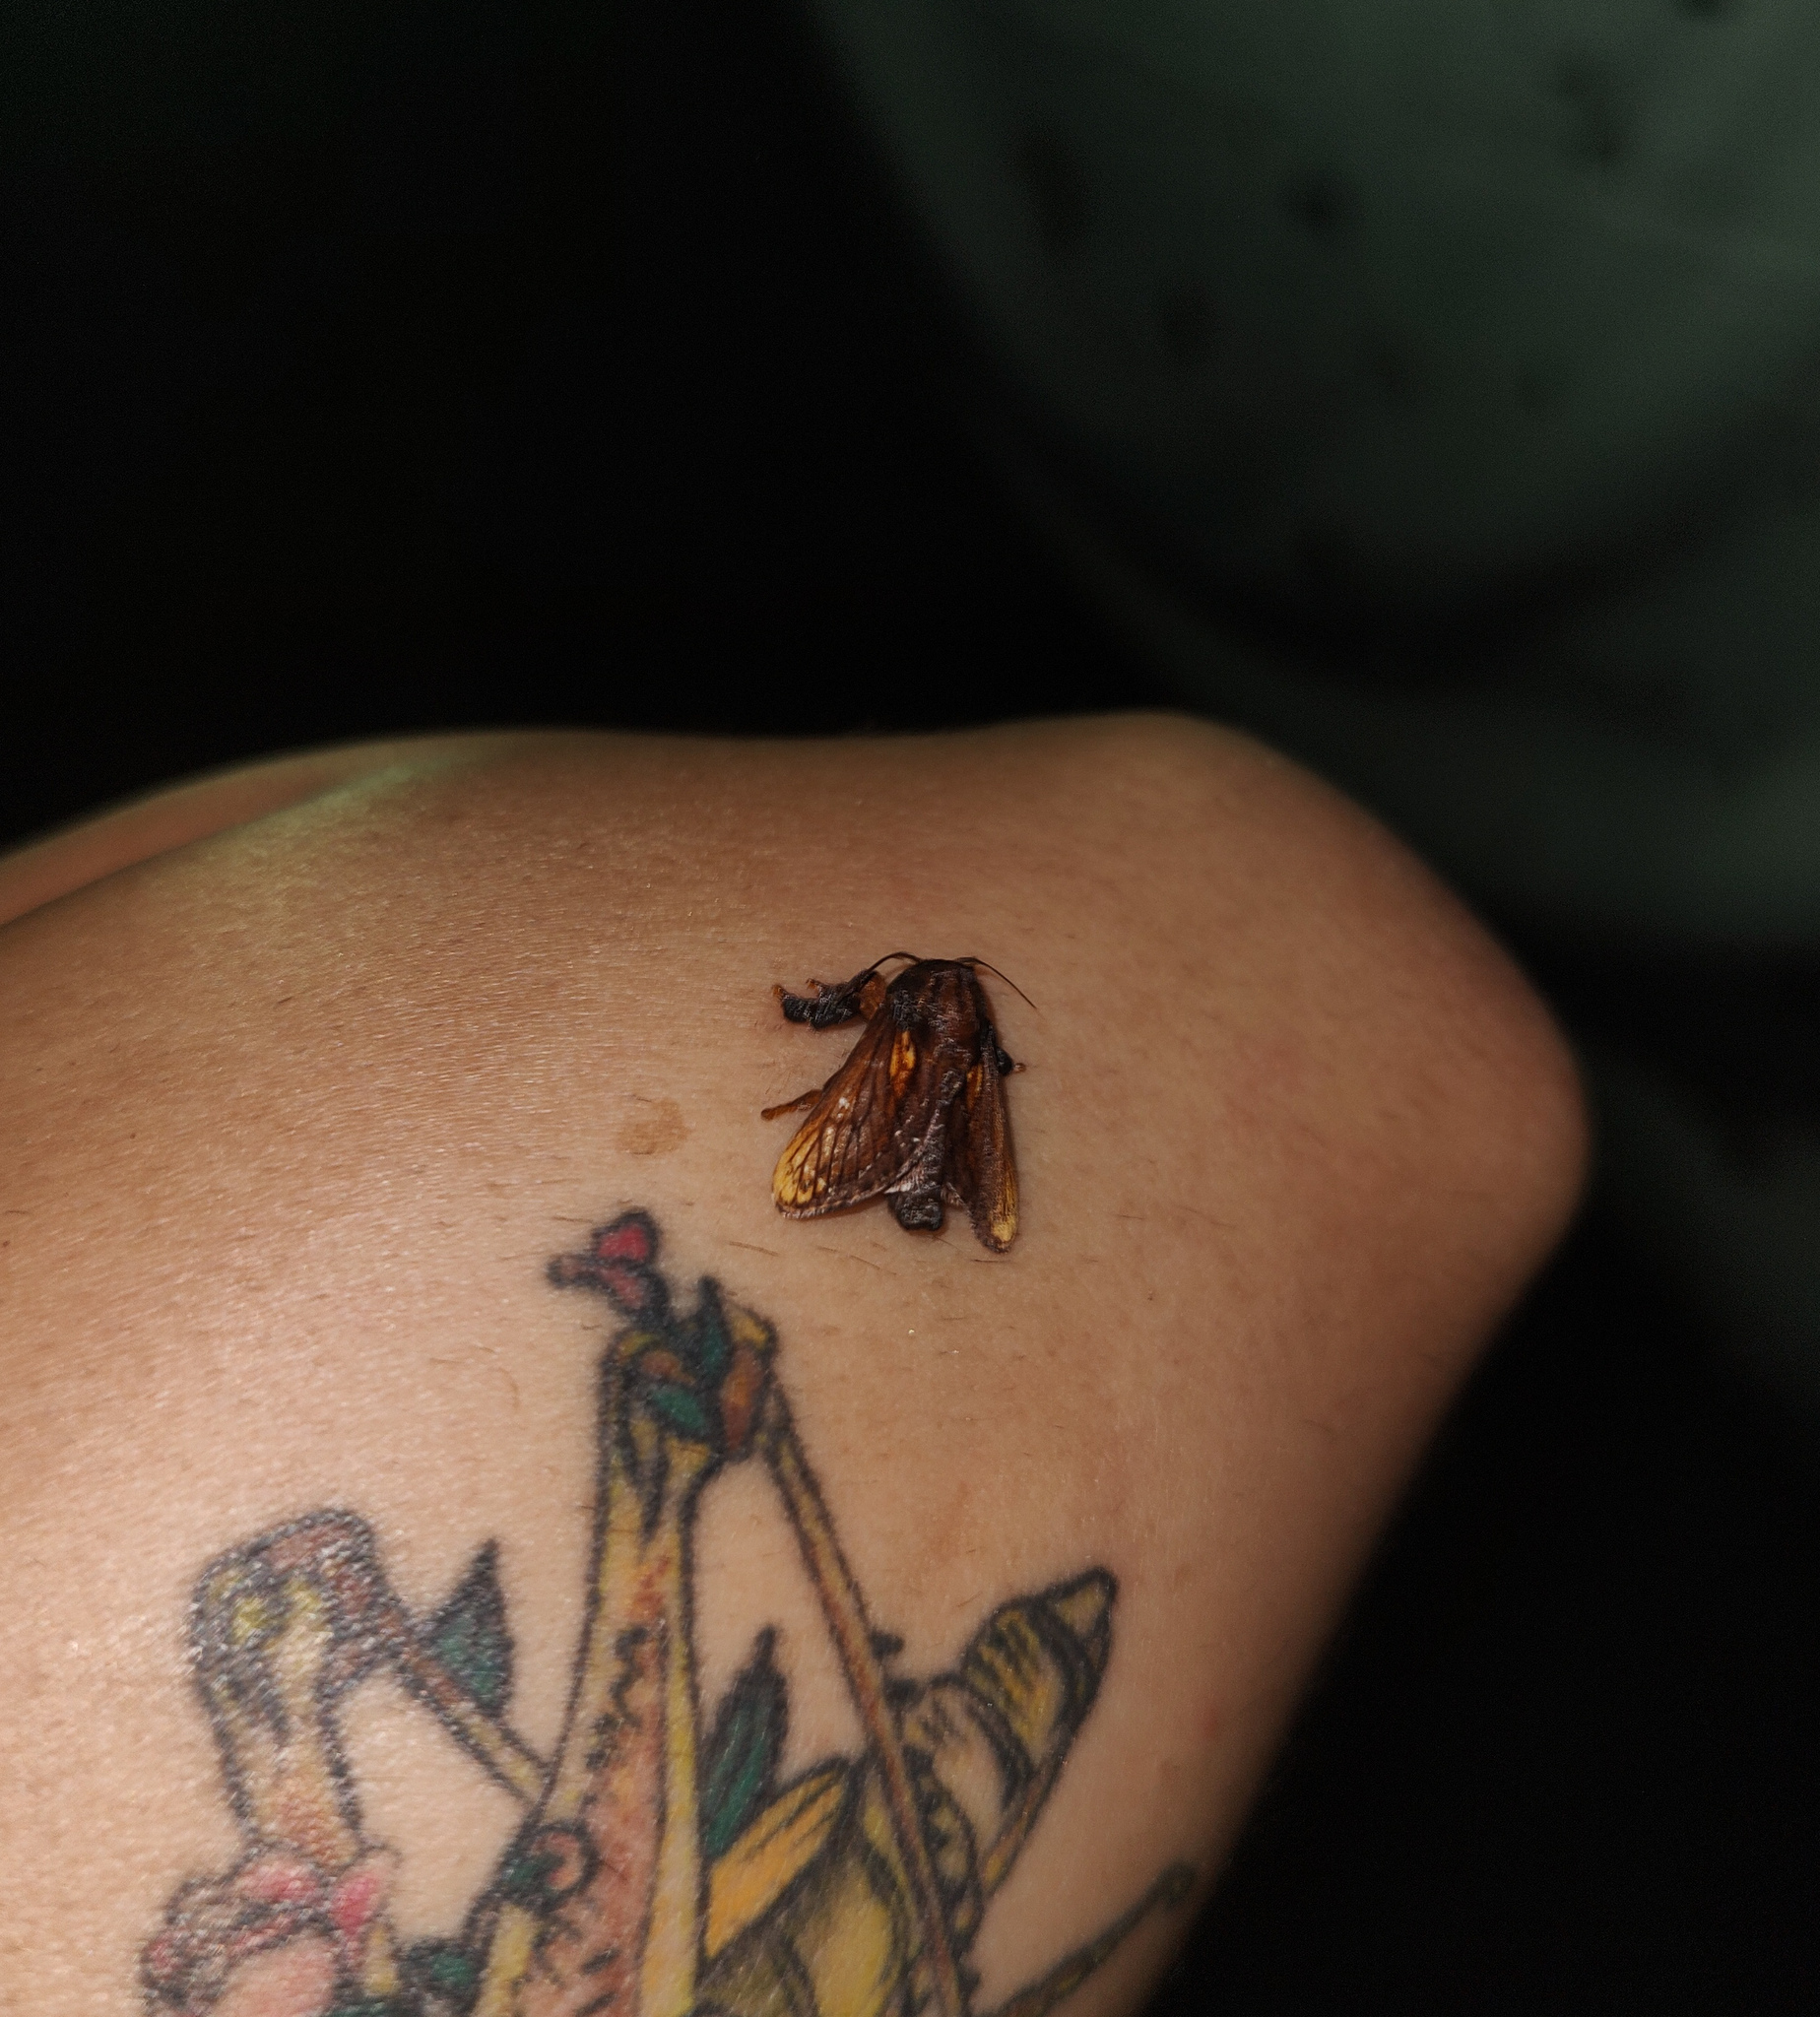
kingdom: Animalia
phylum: Arthropoda
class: Insecta
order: Lepidoptera
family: Limacodidae
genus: Talima
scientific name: Talima ingenour
